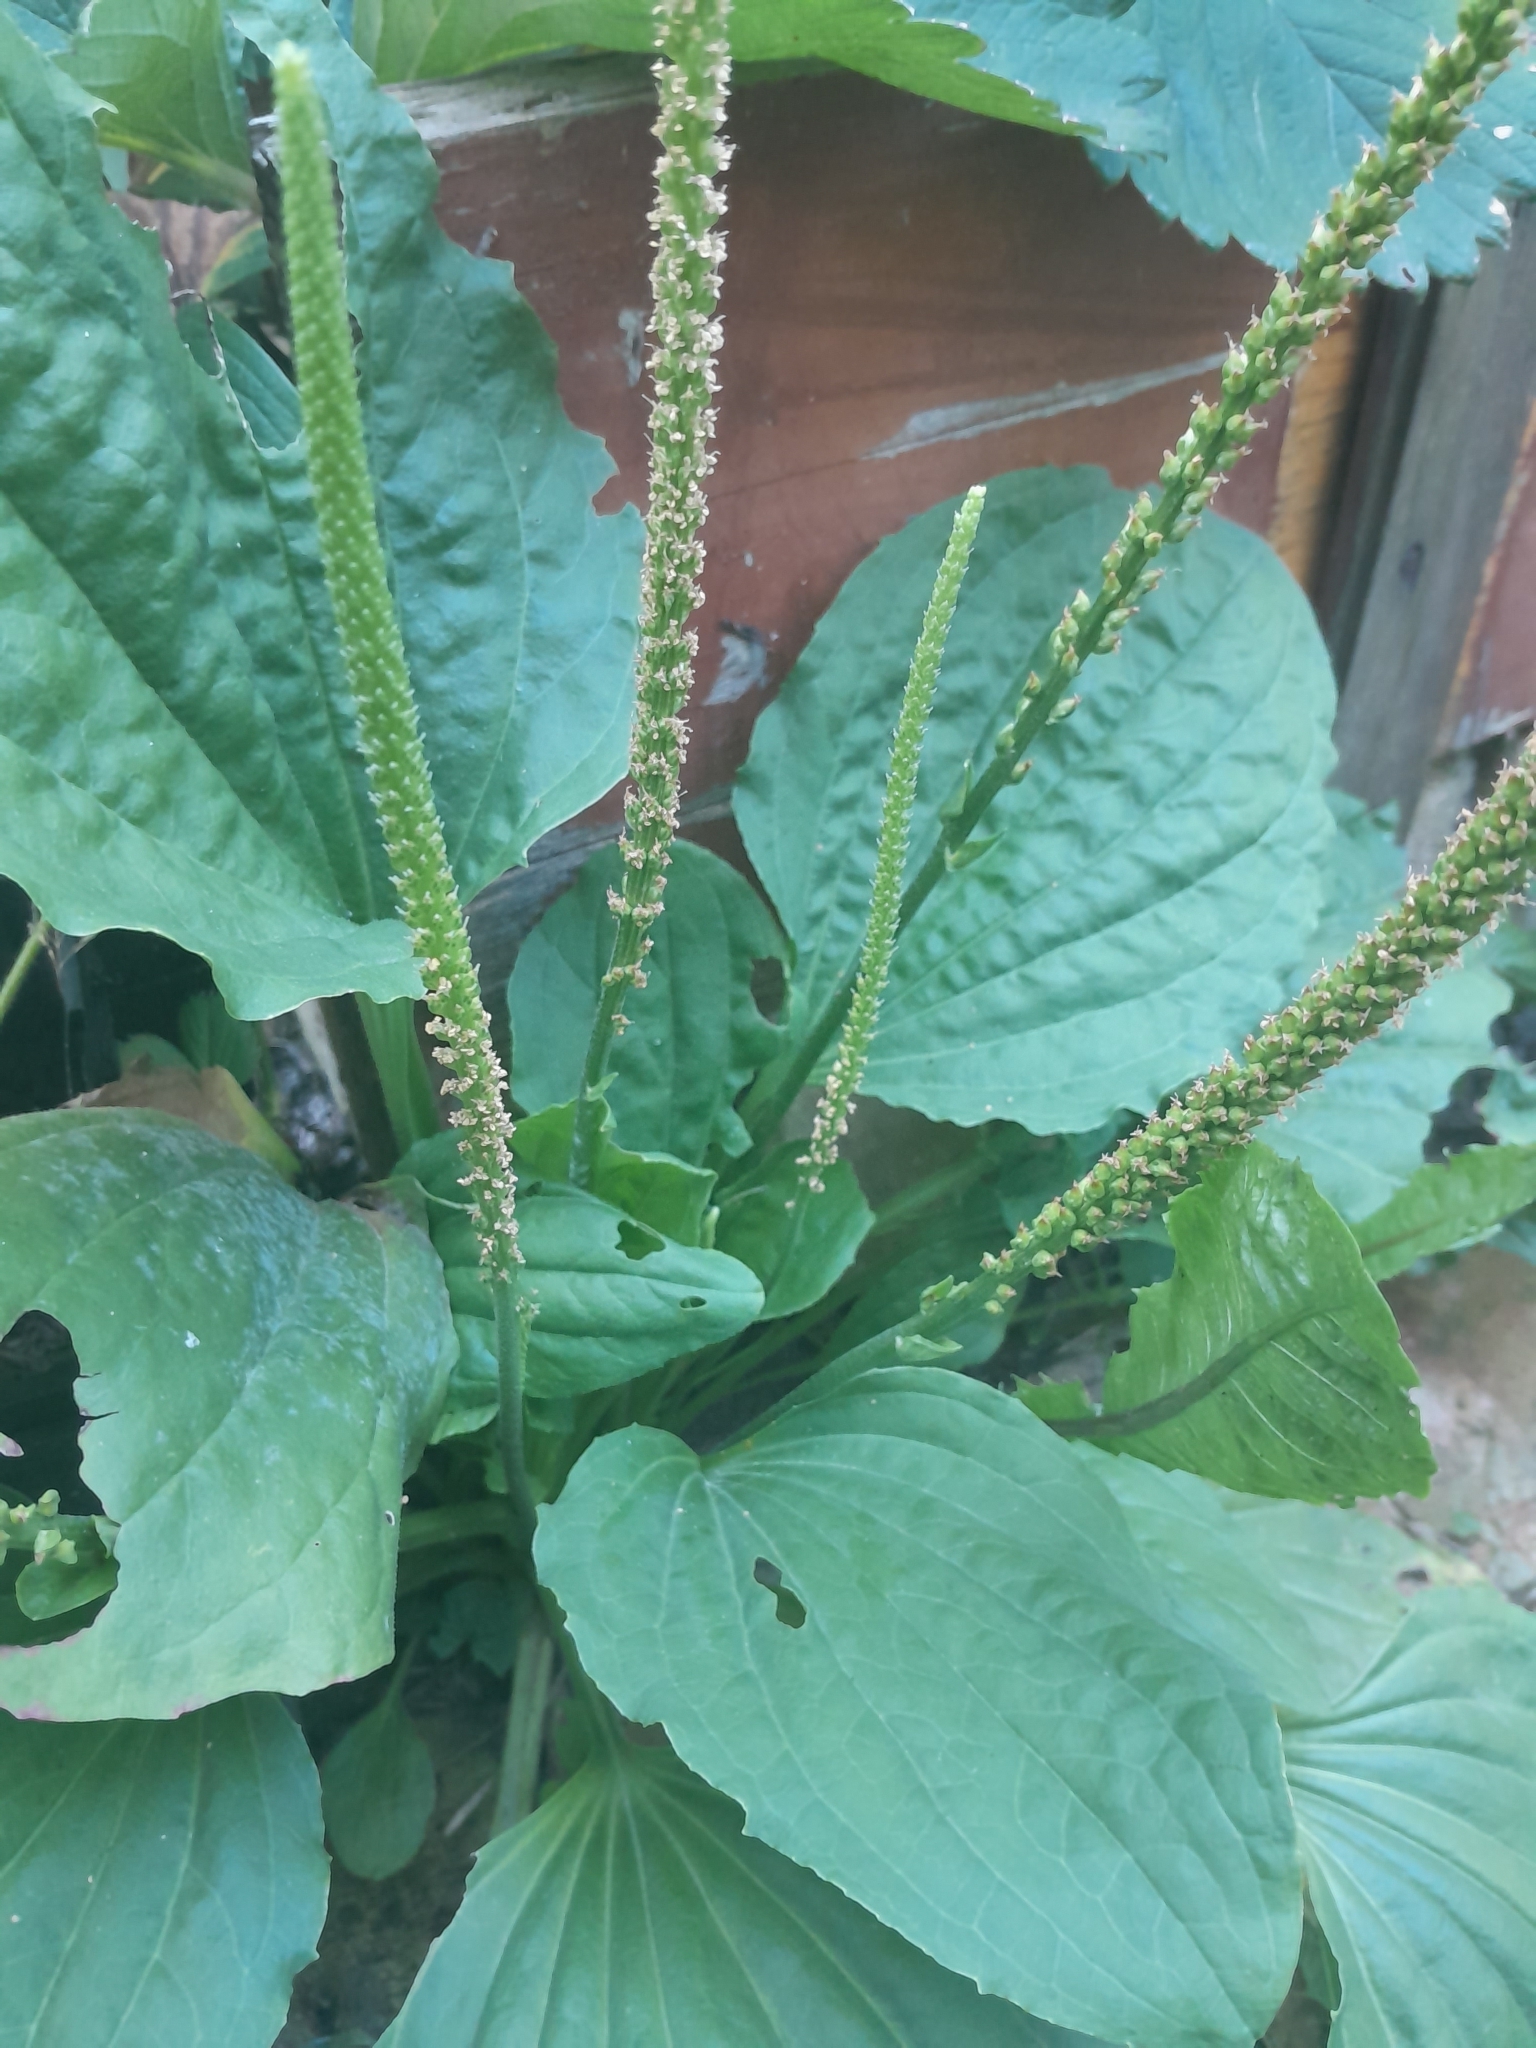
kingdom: Plantae
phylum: Tracheophyta
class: Magnoliopsida
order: Lamiales
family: Plantaginaceae
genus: Plantago
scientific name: Plantago major
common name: Common plantain
